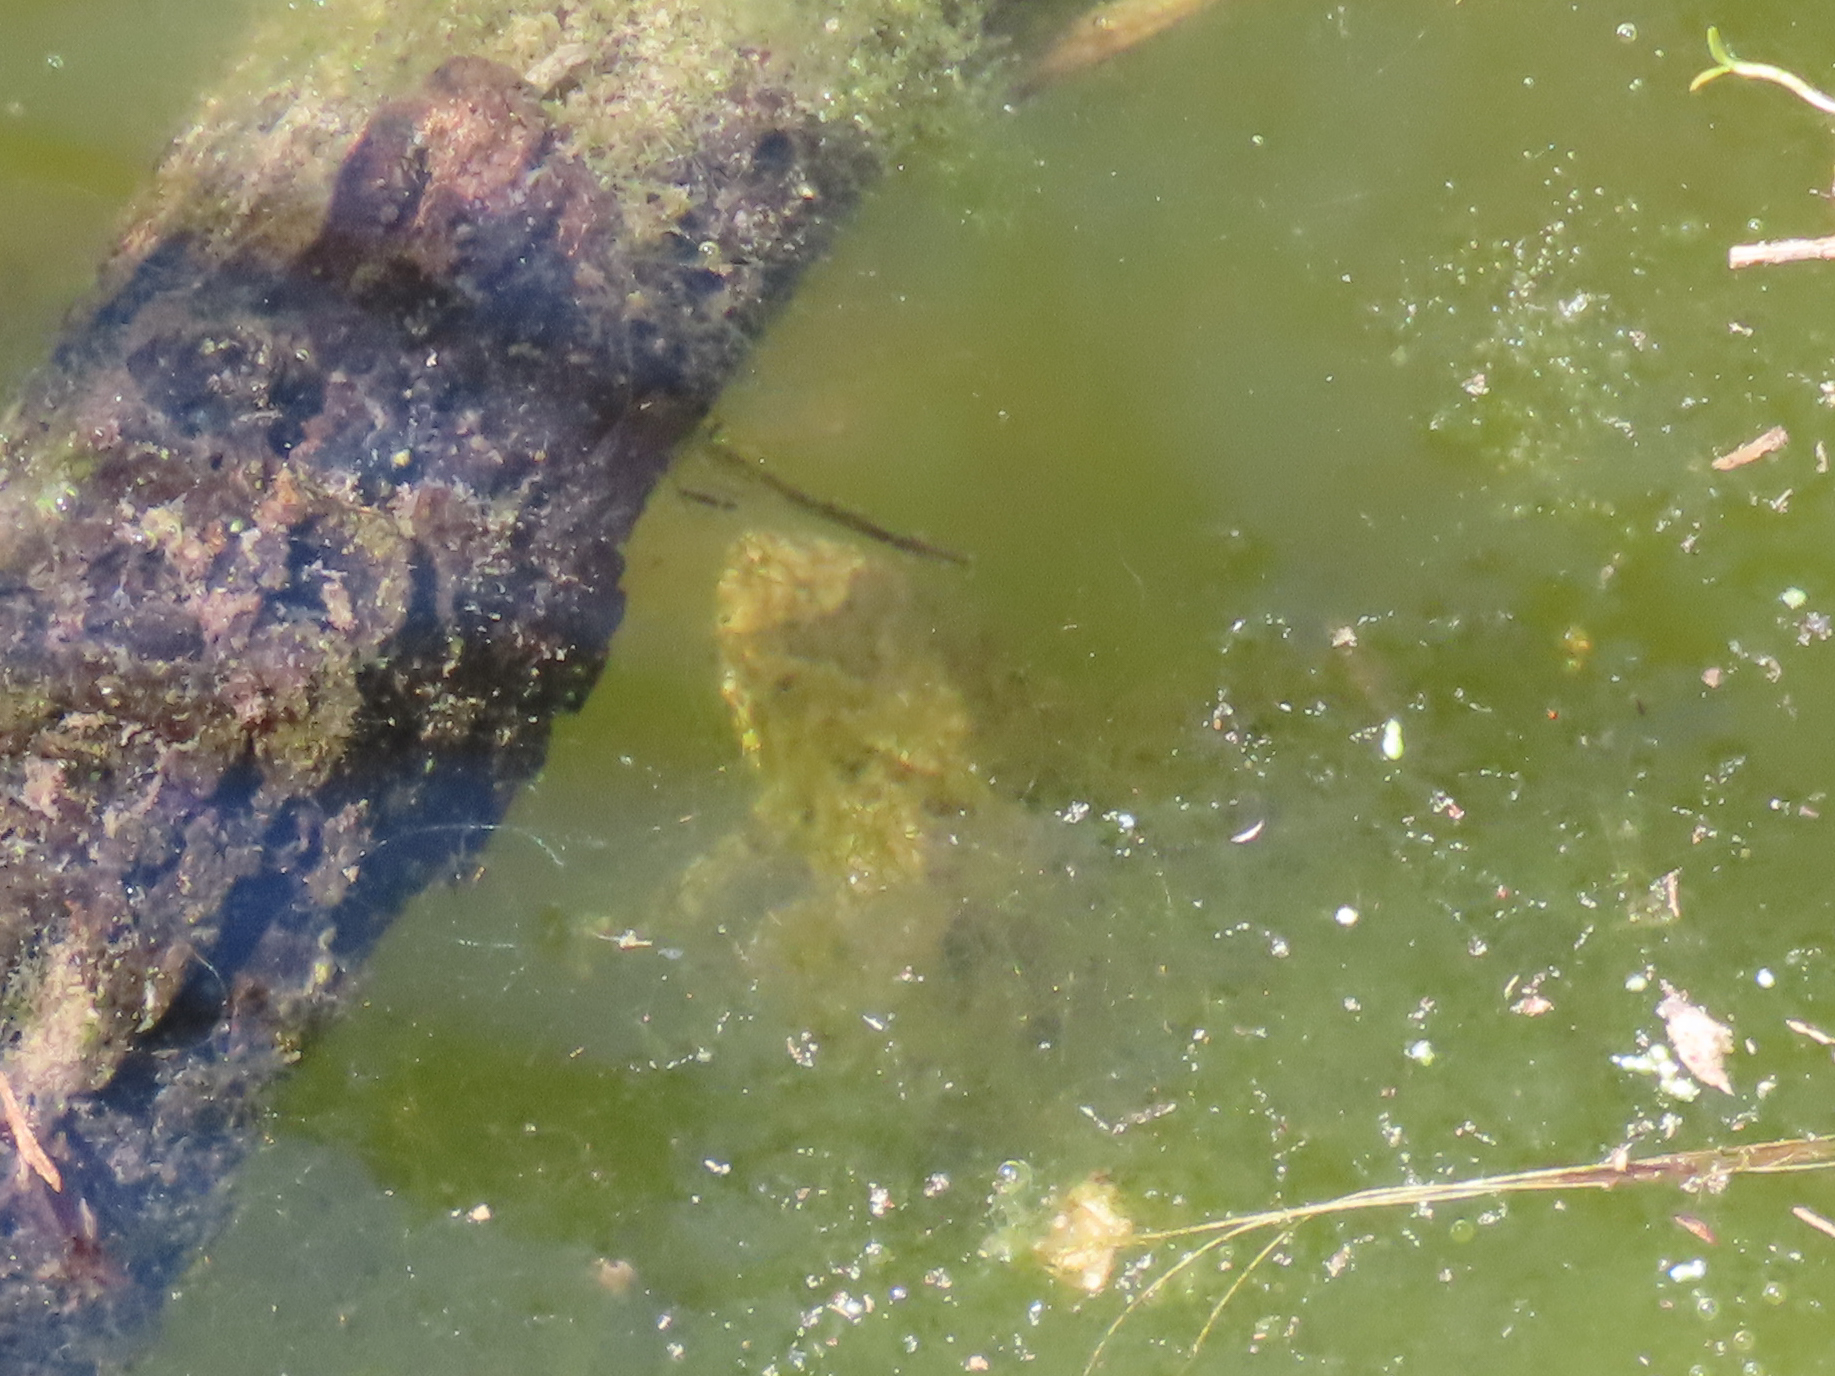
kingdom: Animalia
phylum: Chordata
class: Amphibia
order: Anura
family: Hylidae
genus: Acris
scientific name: Acris blanchardi
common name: Blanchard's cricket frog
